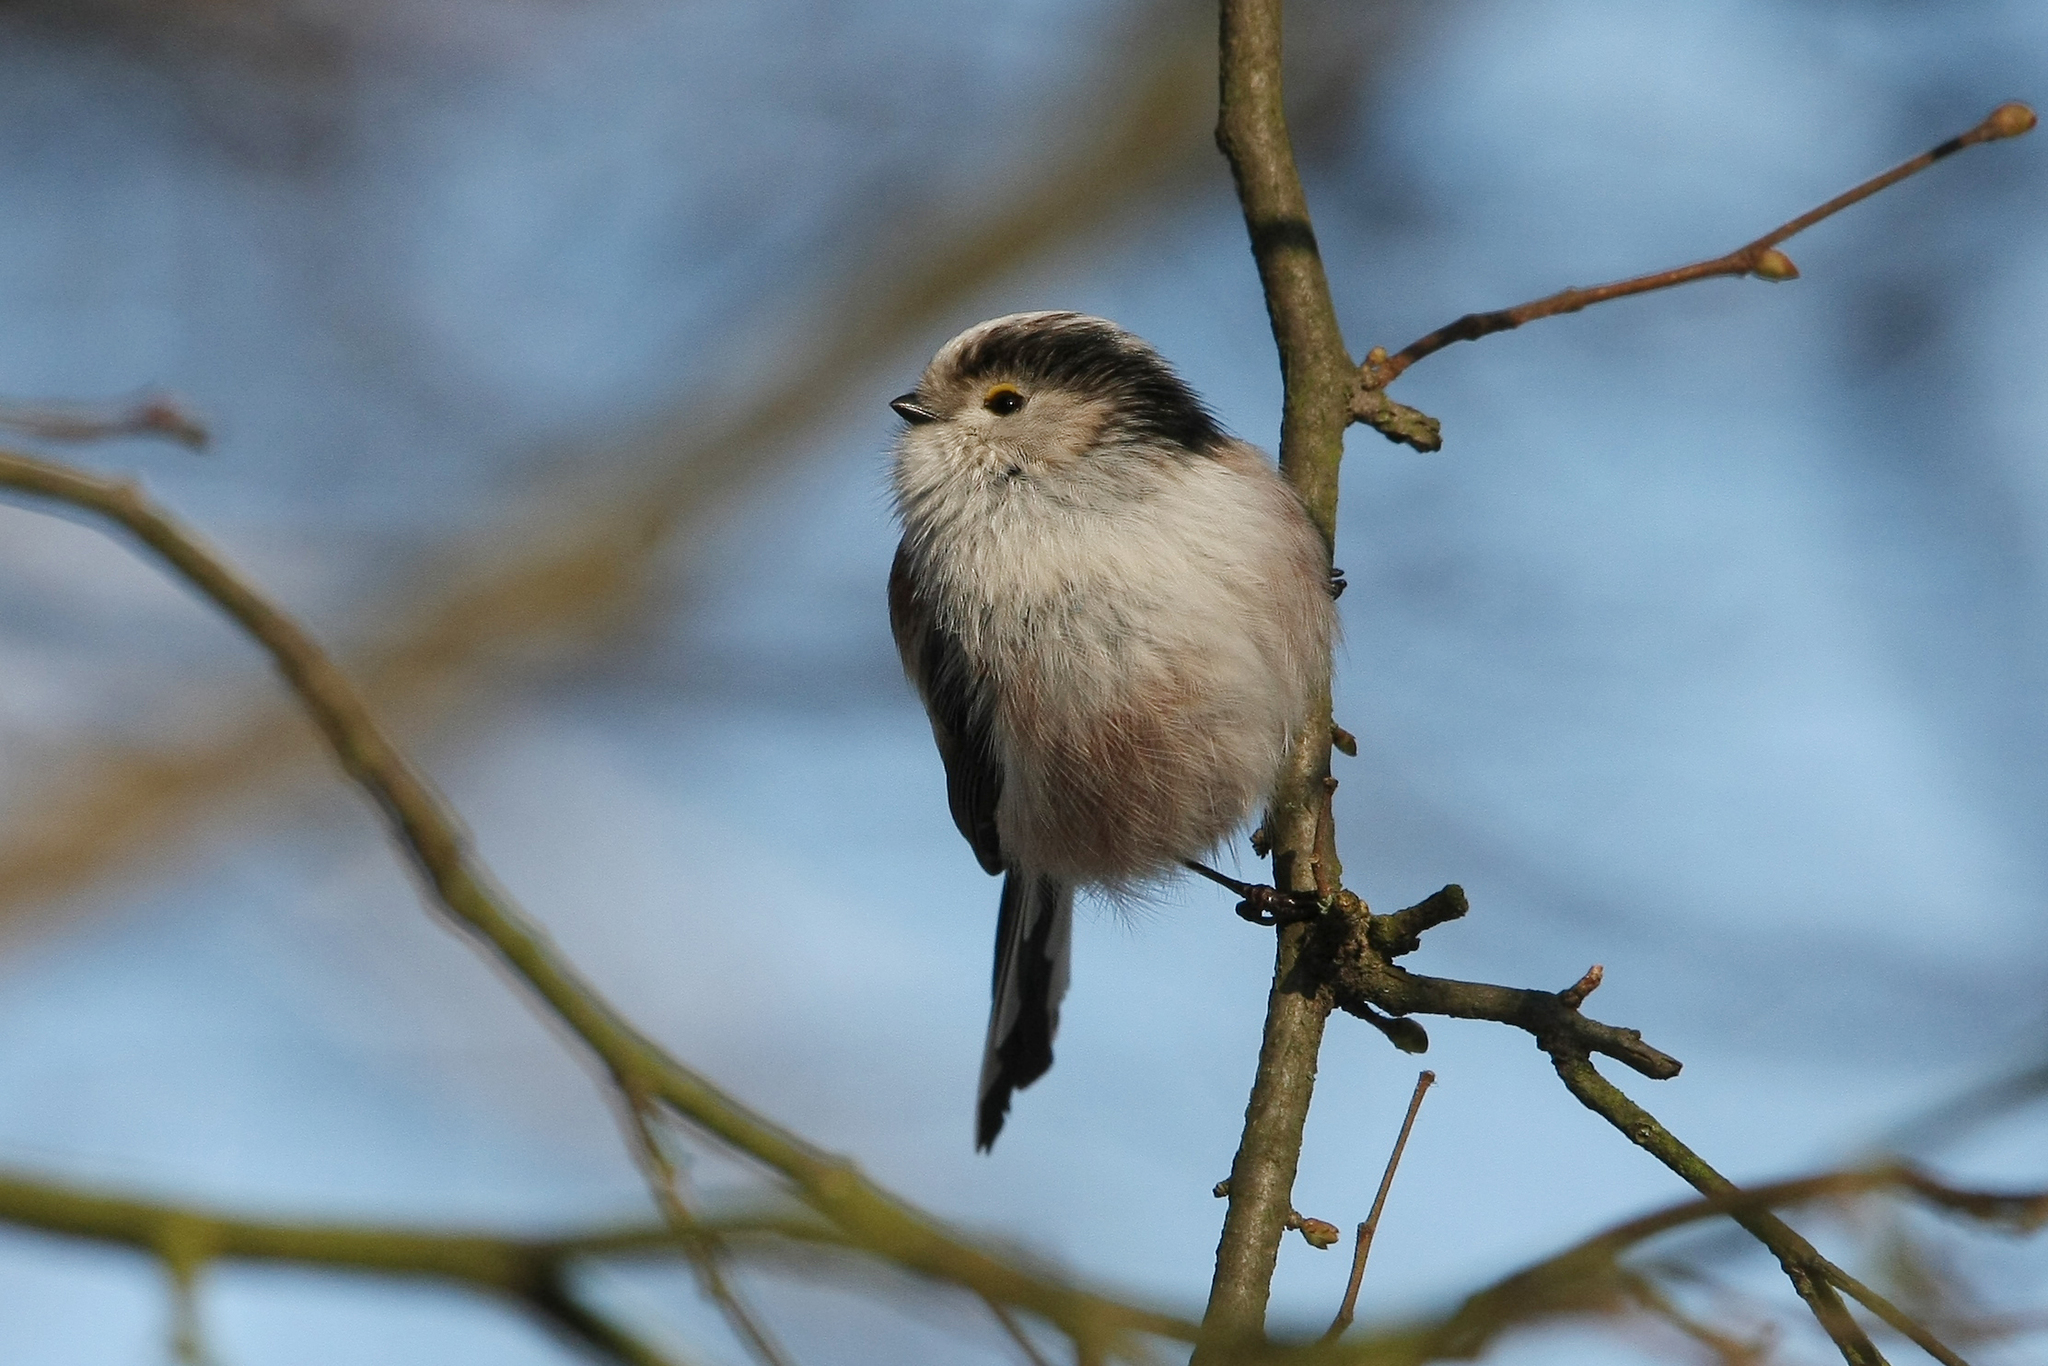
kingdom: Animalia
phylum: Chordata
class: Aves
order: Passeriformes
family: Aegithalidae
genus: Aegithalos
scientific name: Aegithalos caudatus
